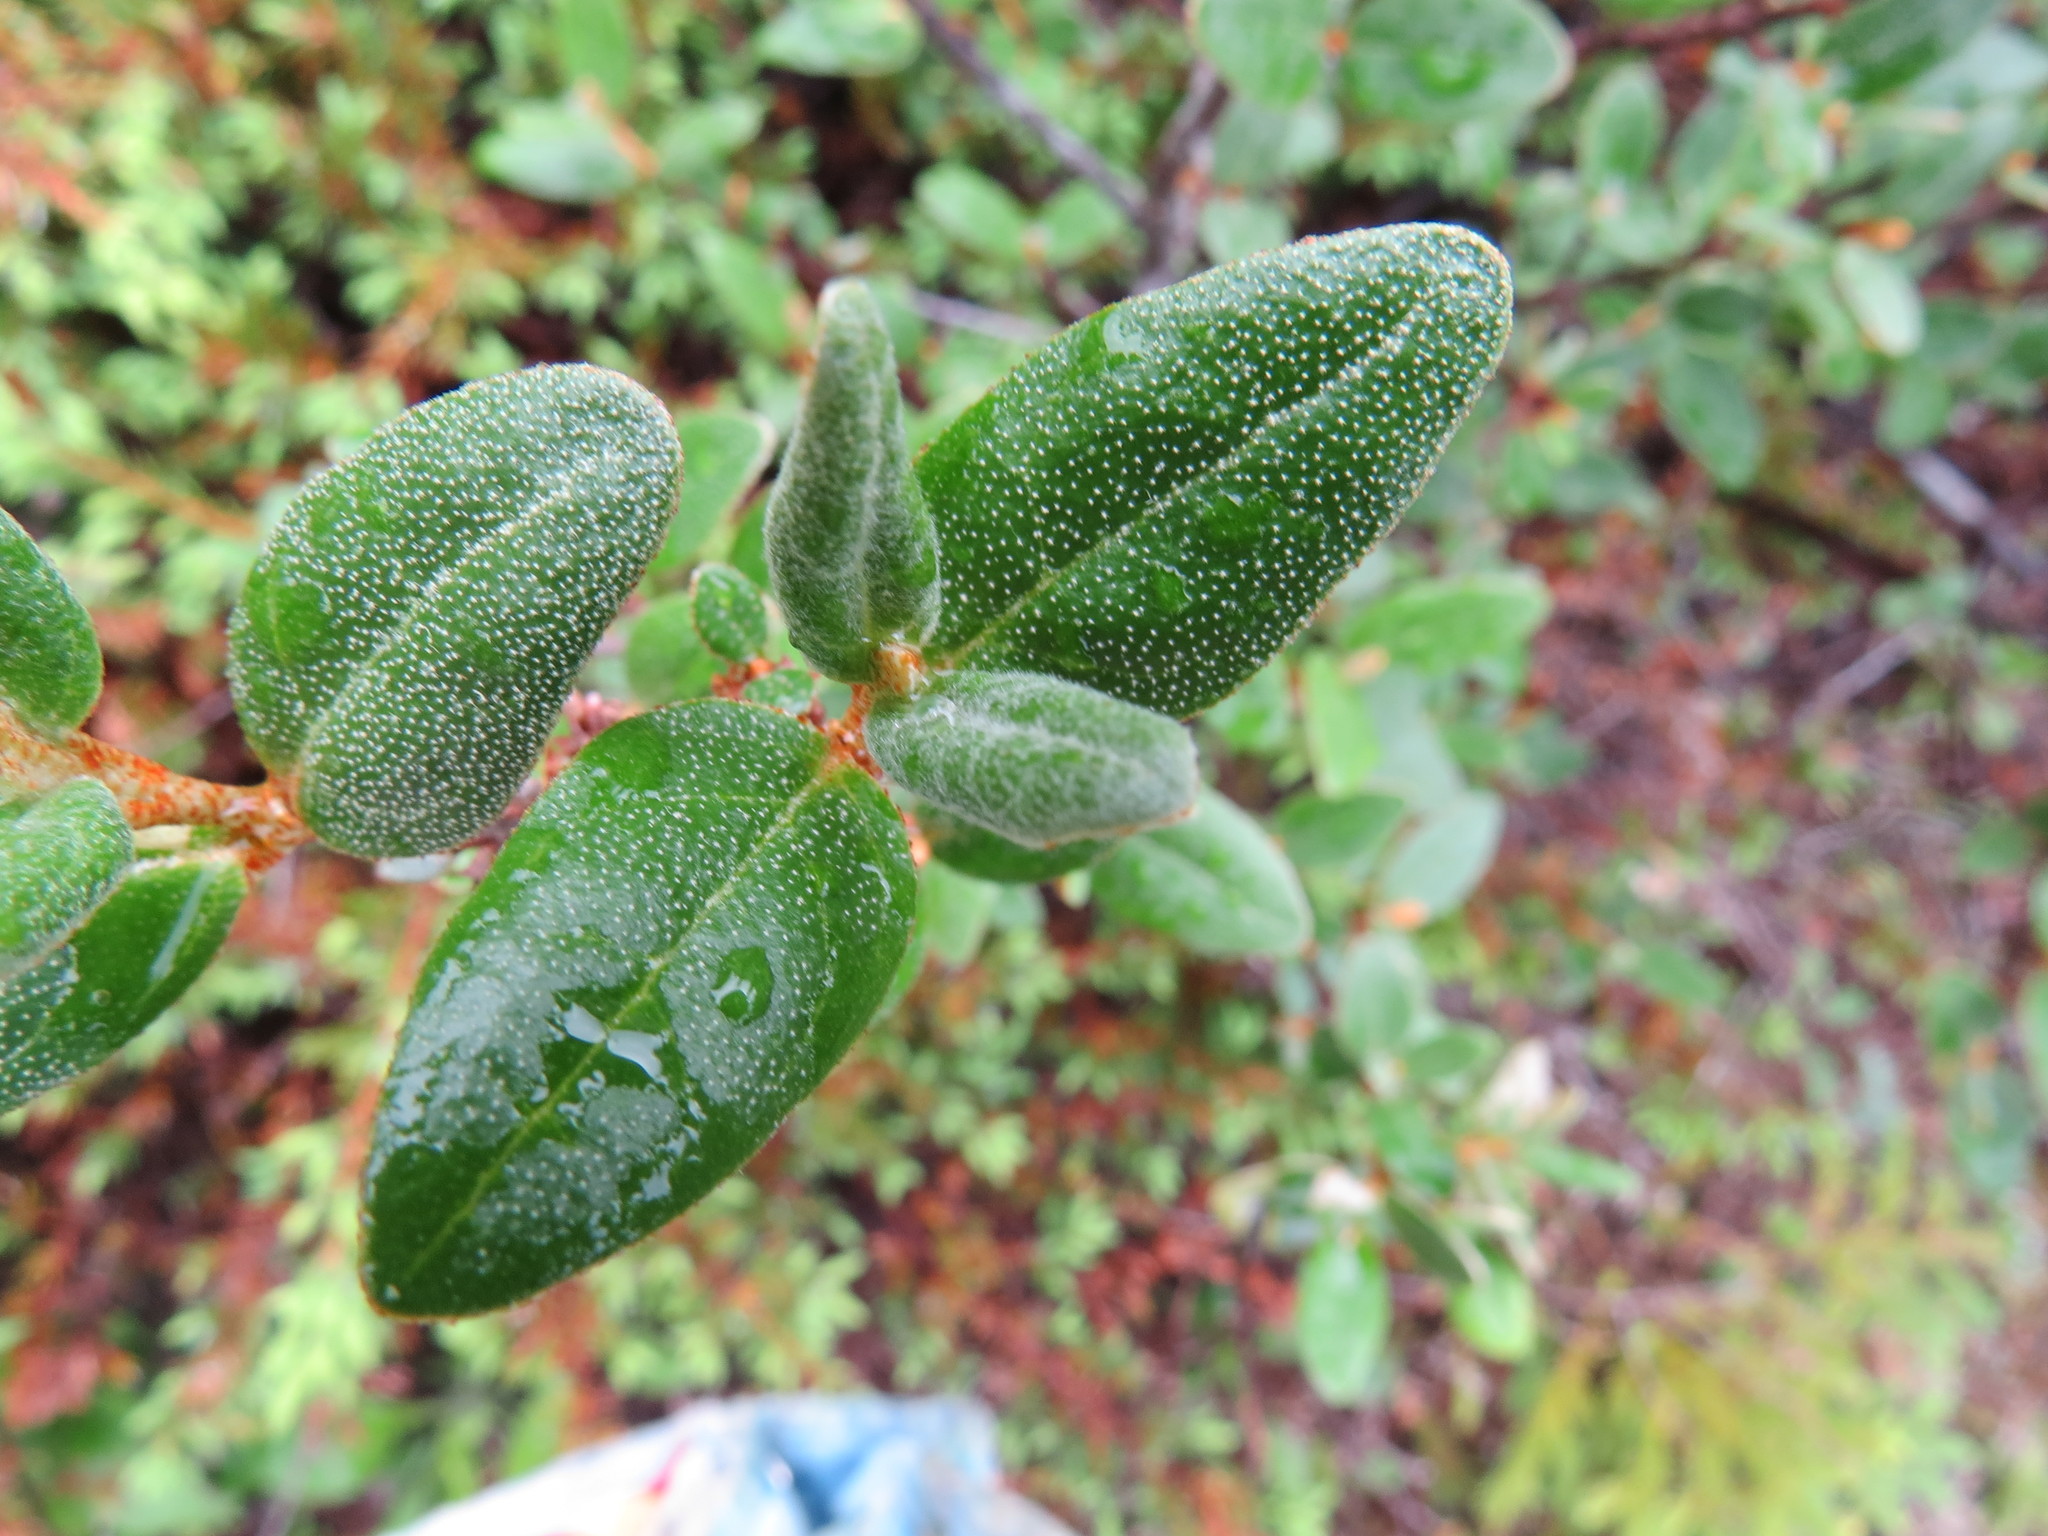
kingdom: Plantae
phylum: Tracheophyta
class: Magnoliopsida
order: Rosales
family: Elaeagnaceae
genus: Shepherdia
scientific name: Shepherdia canadensis
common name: Soapberry
